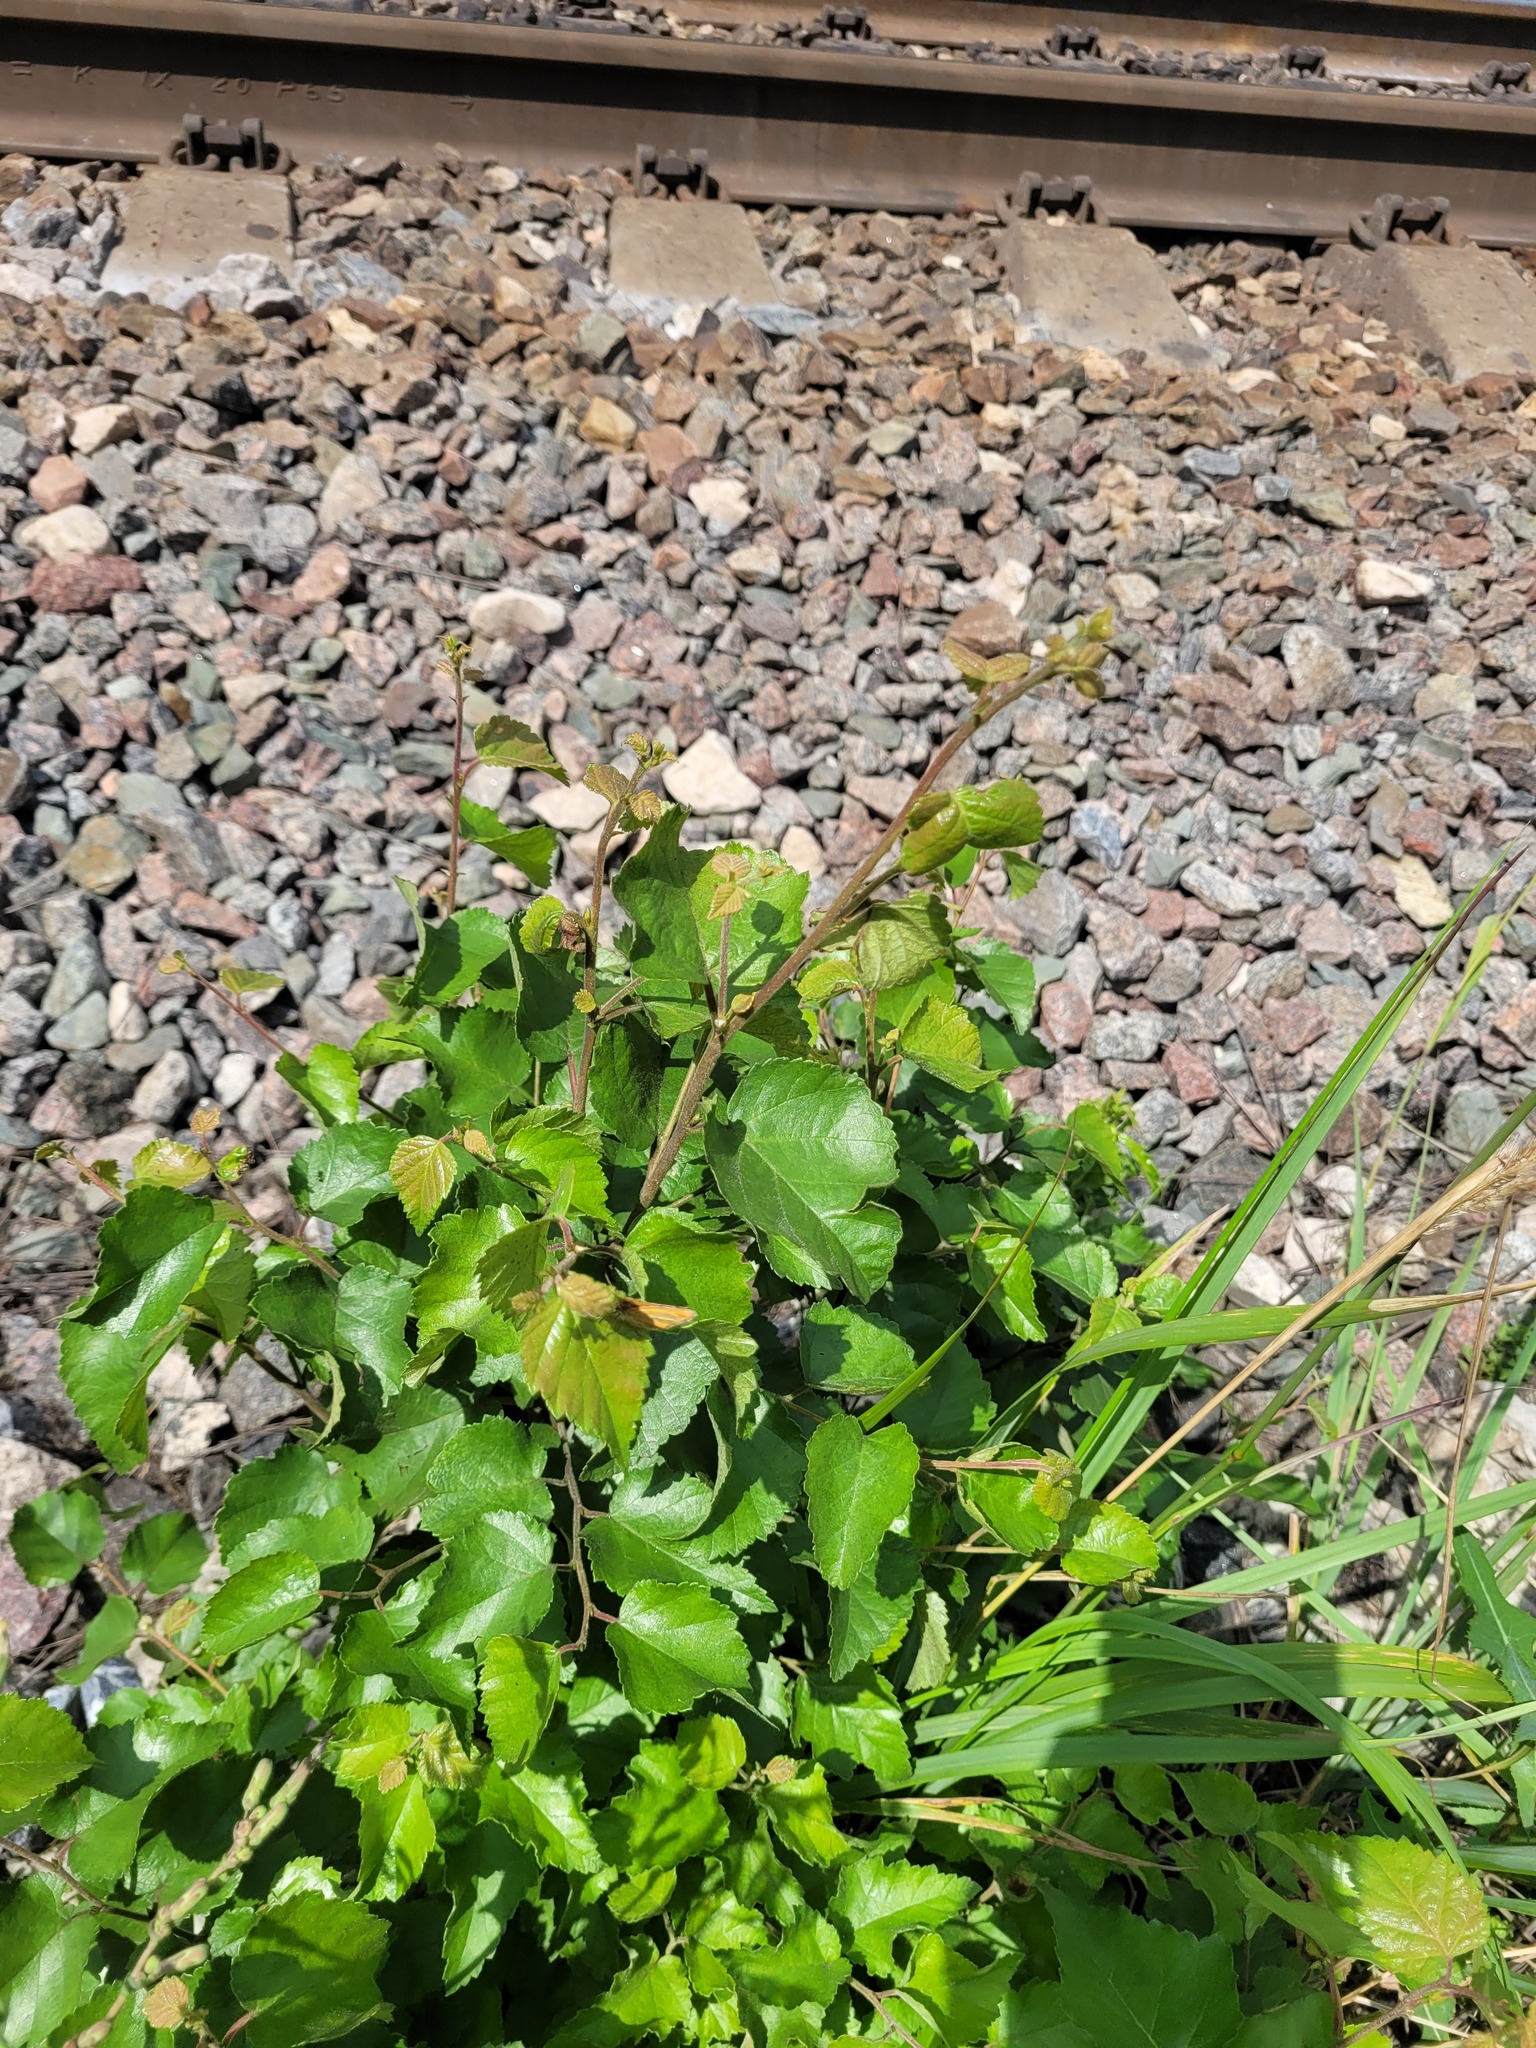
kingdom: Plantae
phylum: Tracheophyta
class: Magnoliopsida
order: Fagales
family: Betulaceae
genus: Betula
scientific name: Betula pubescens
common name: Downy birch
